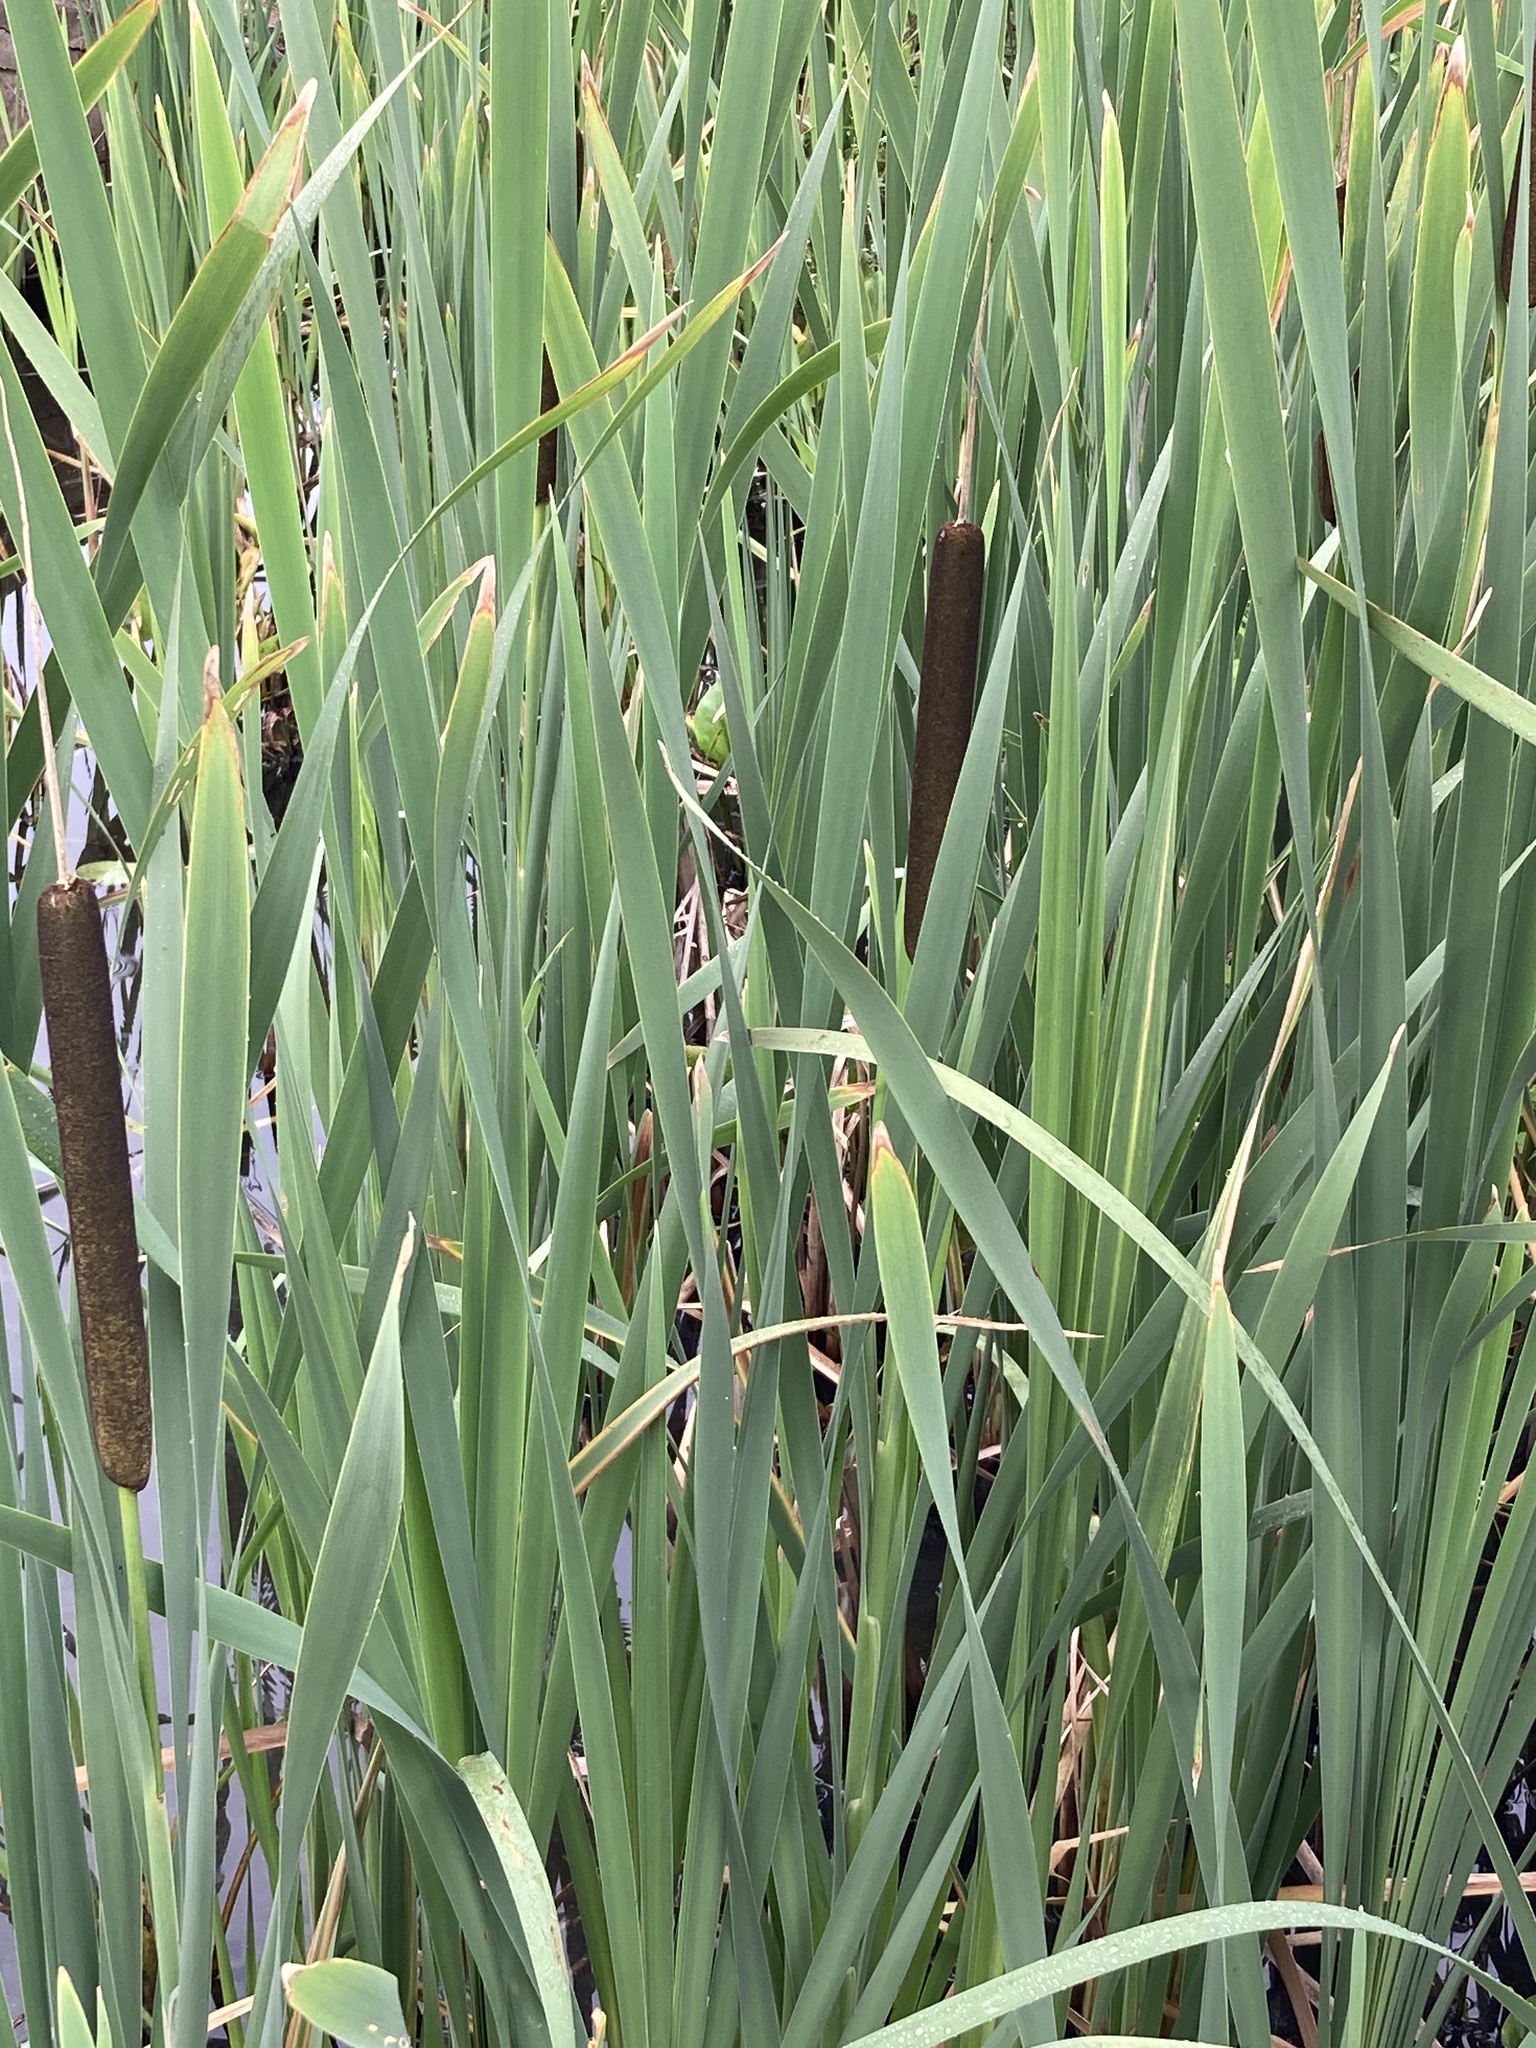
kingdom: Plantae
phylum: Tracheophyta
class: Liliopsida
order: Poales
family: Typhaceae
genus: Typha
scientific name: Typha latifolia
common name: Broadleaf cattail
